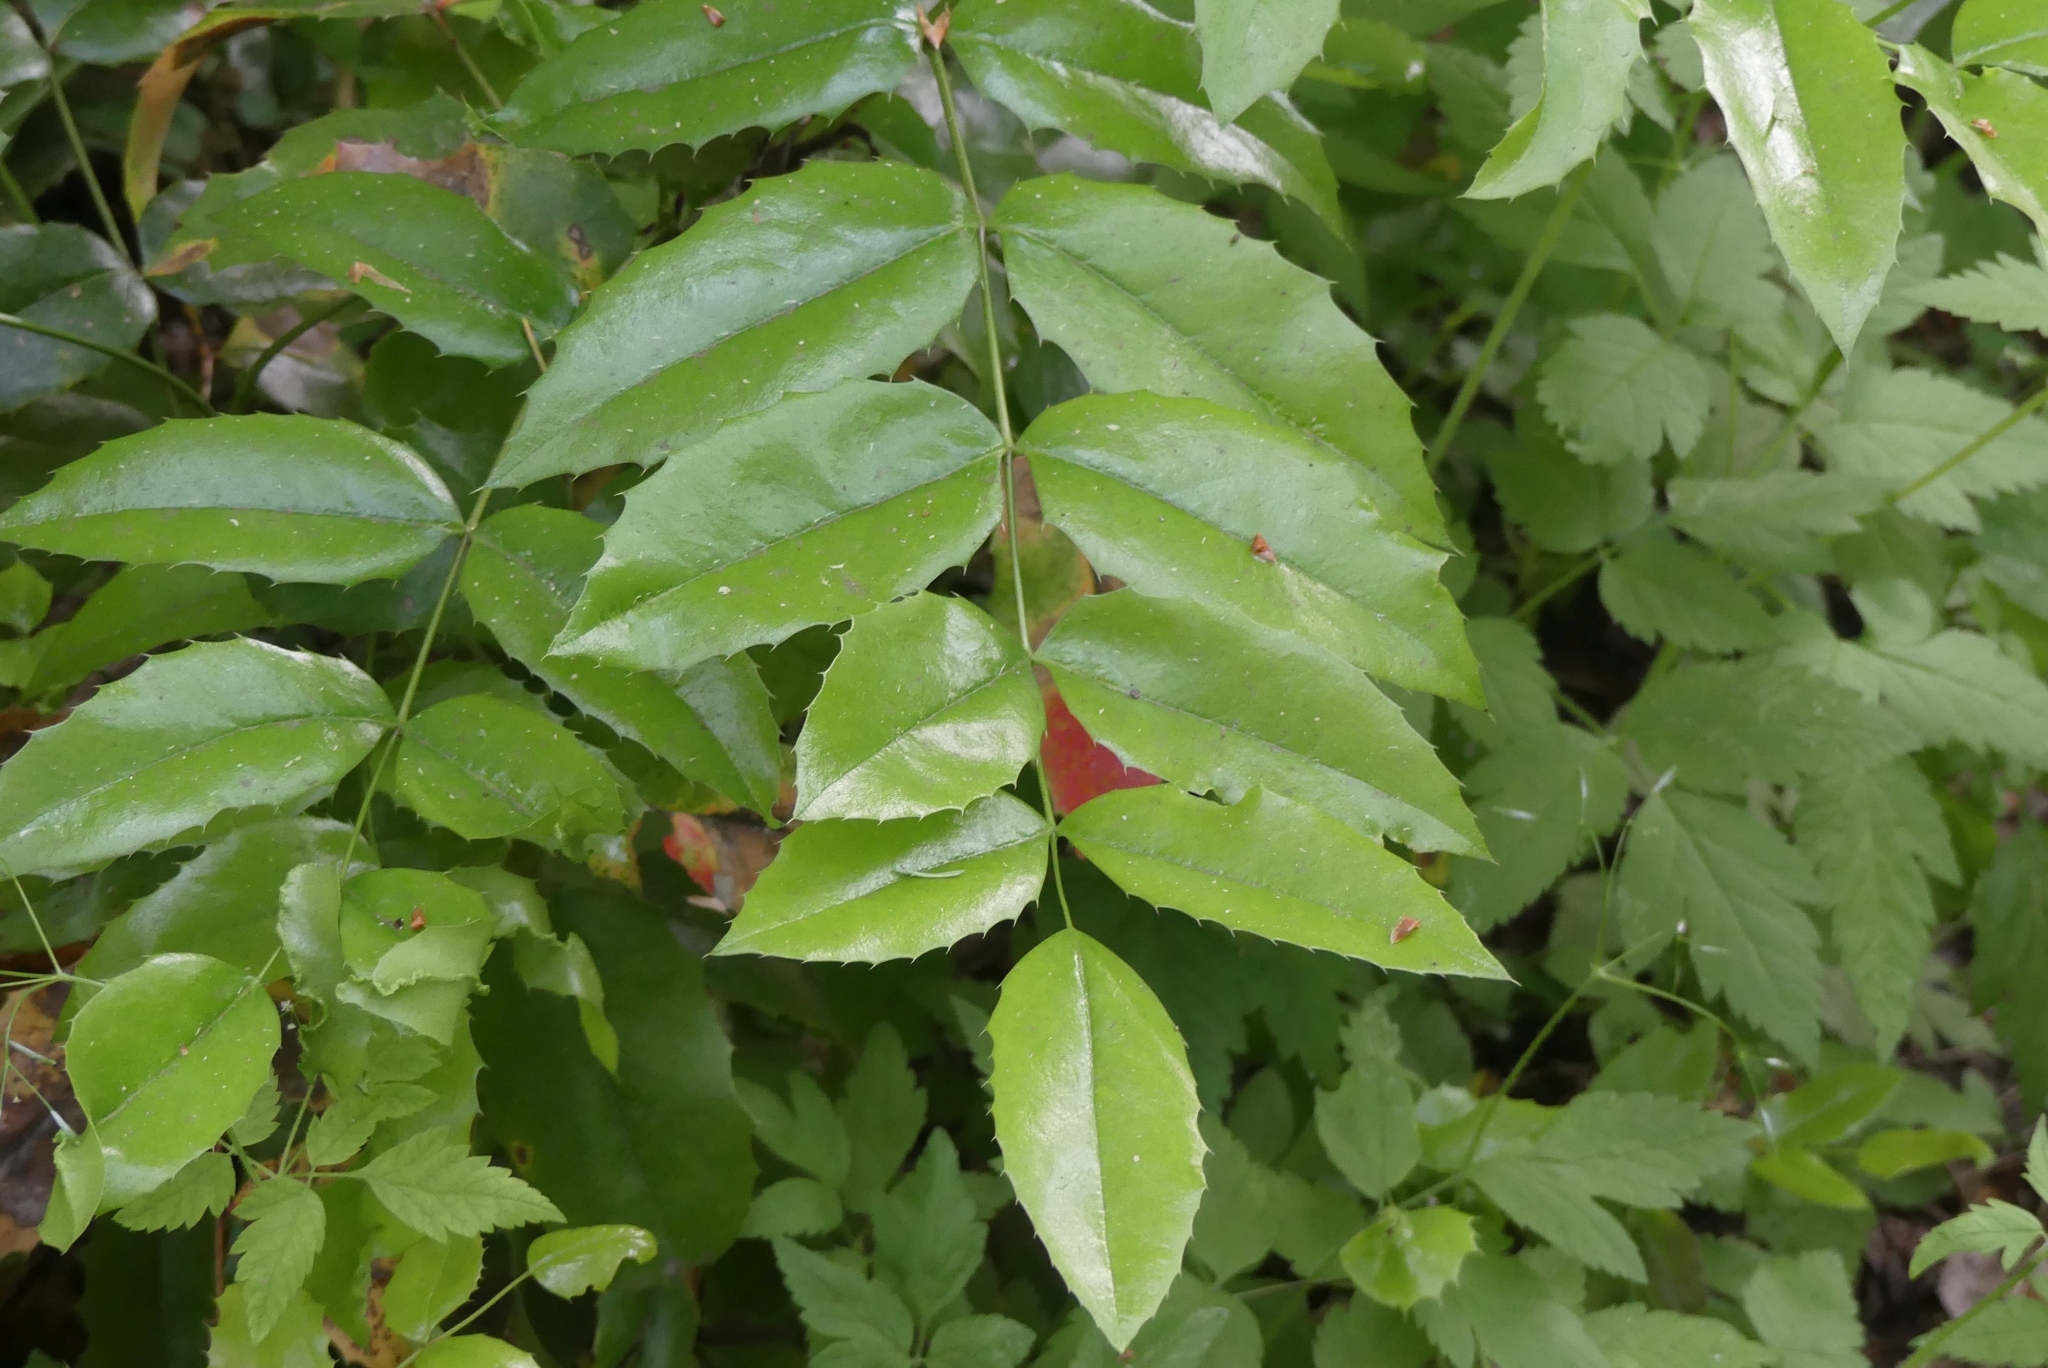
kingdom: Plantae
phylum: Tracheophyta
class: Magnoliopsida
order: Ranunculales
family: Berberidaceae
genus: Mahonia
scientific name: Mahonia aquifolium
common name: Oregon-grape
